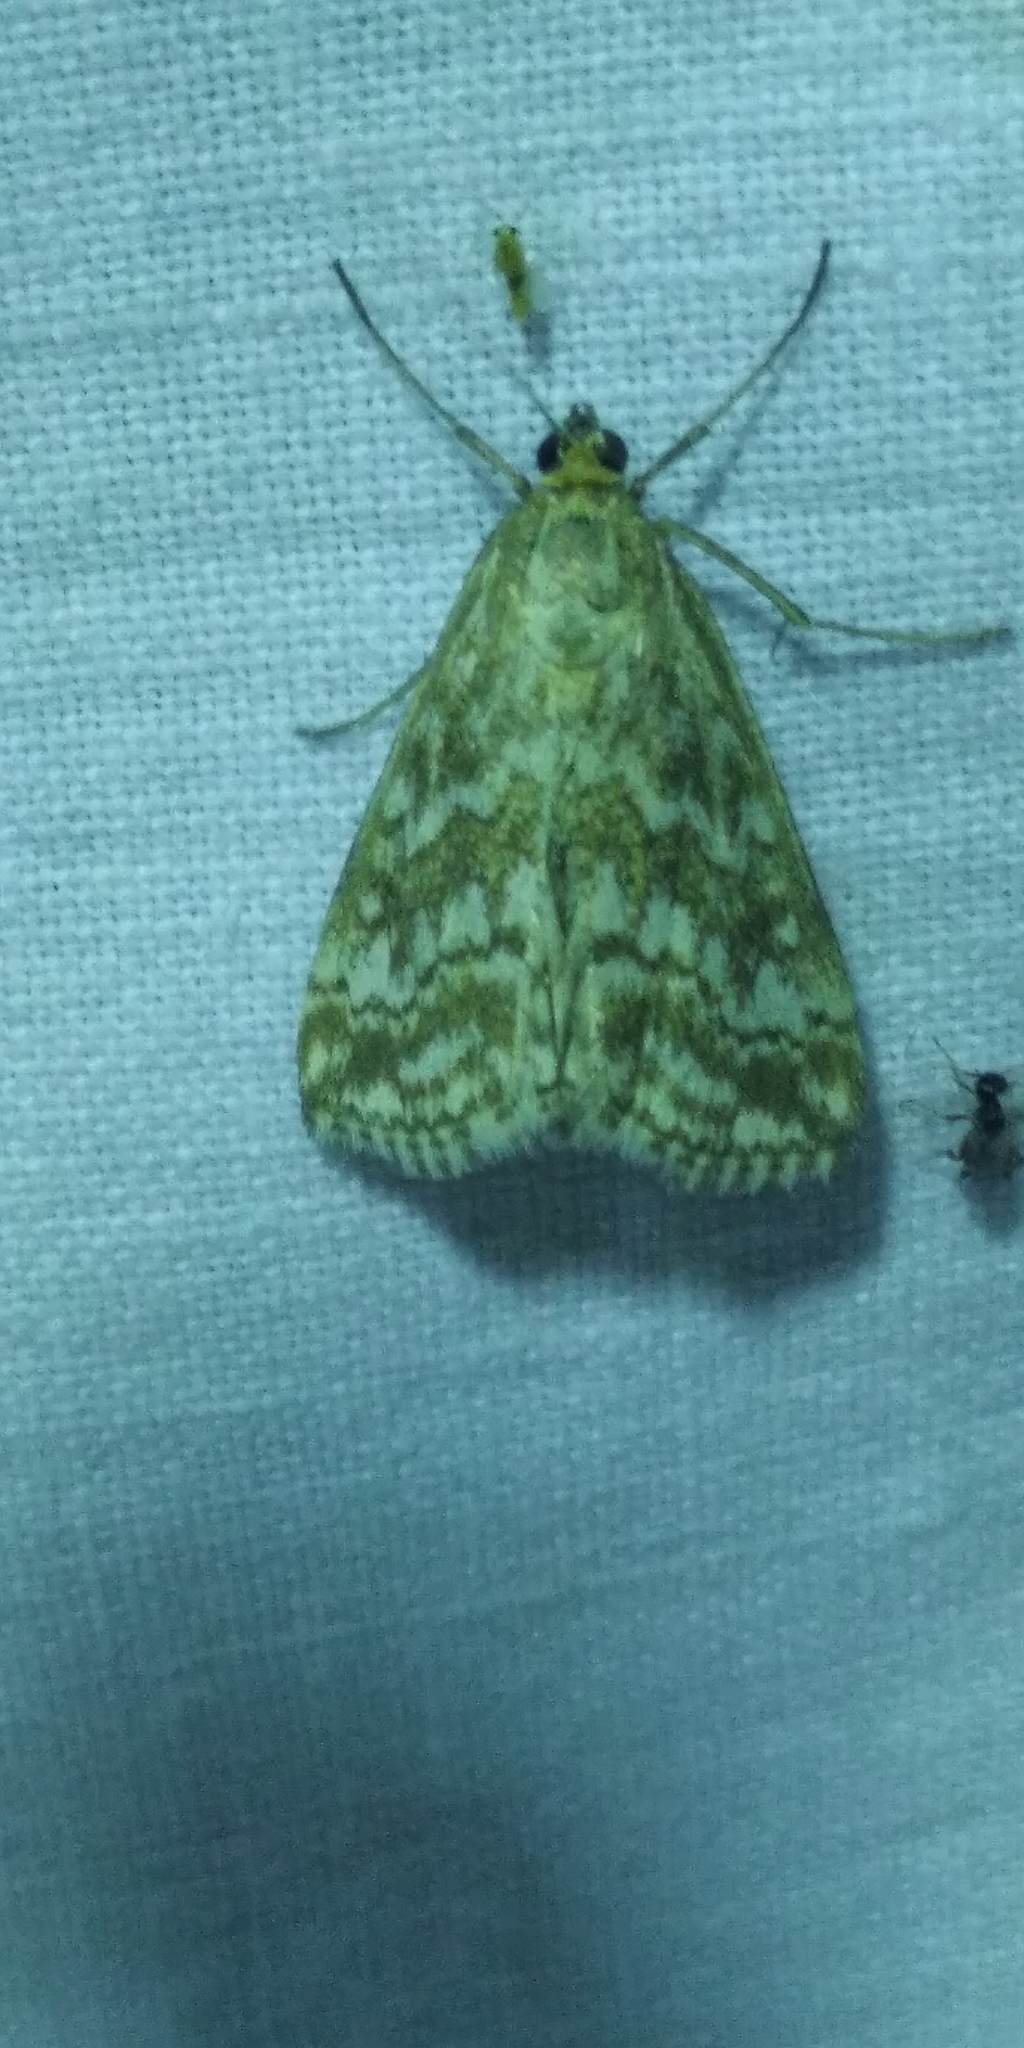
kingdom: Animalia
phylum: Arthropoda
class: Insecta
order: Lepidoptera
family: Crambidae
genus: Evergestis
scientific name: Evergestis frumentalis
